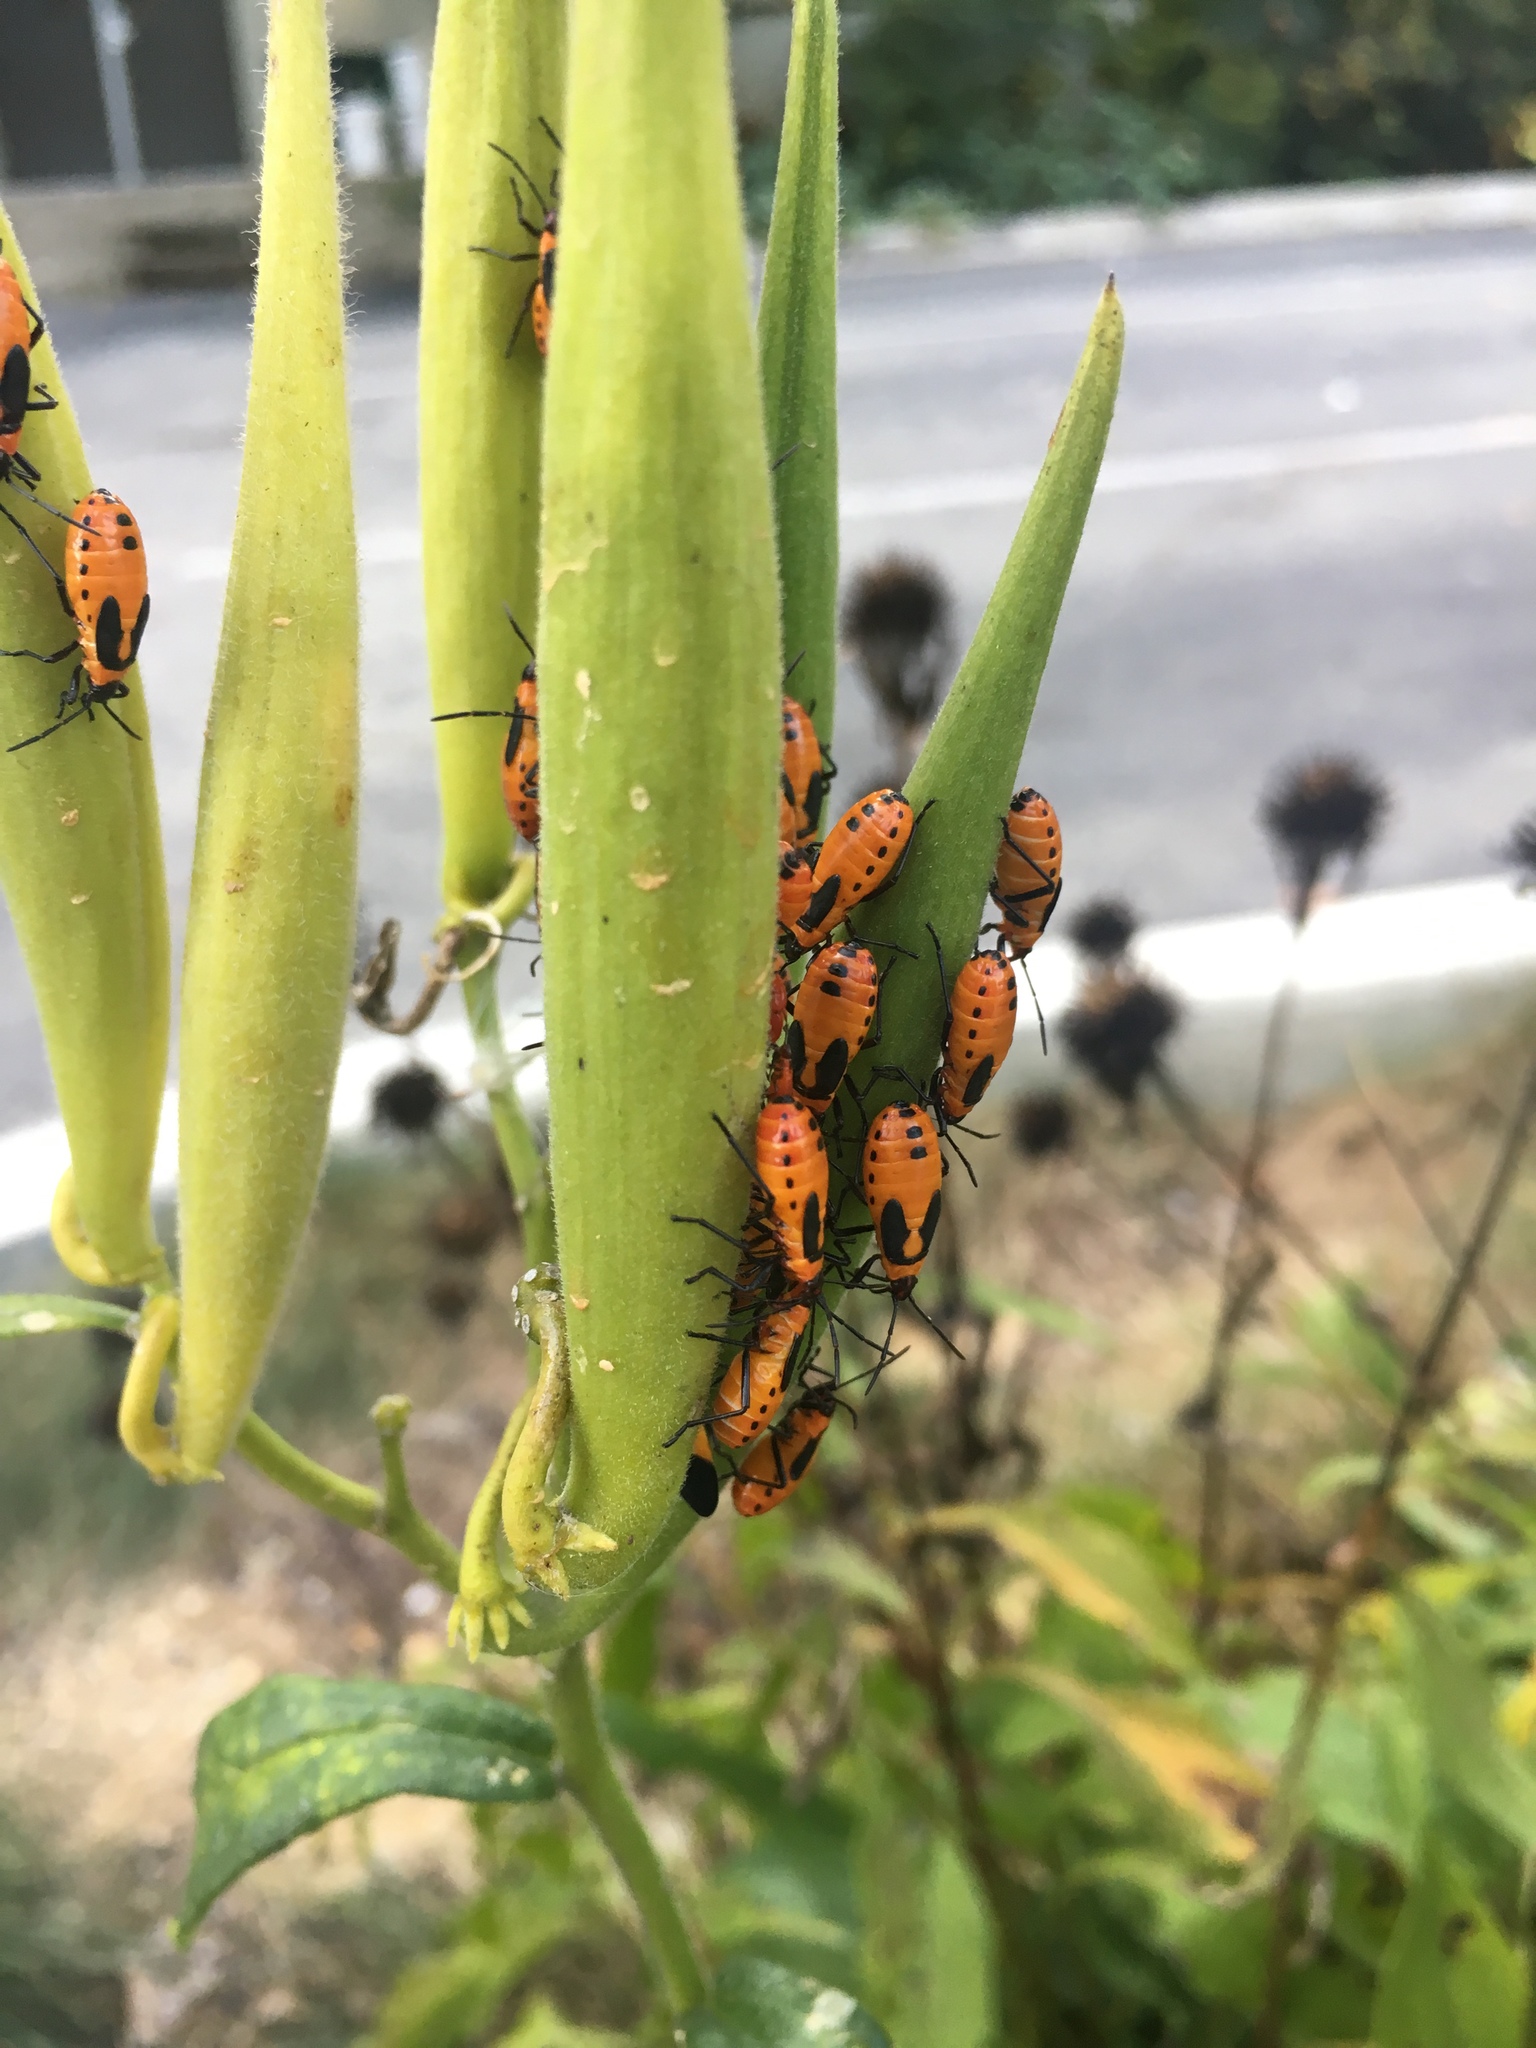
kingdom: Animalia
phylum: Arthropoda
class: Insecta
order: Hemiptera
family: Lygaeidae
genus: Oncopeltus
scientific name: Oncopeltus fasciatus
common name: Large milkweed bug
